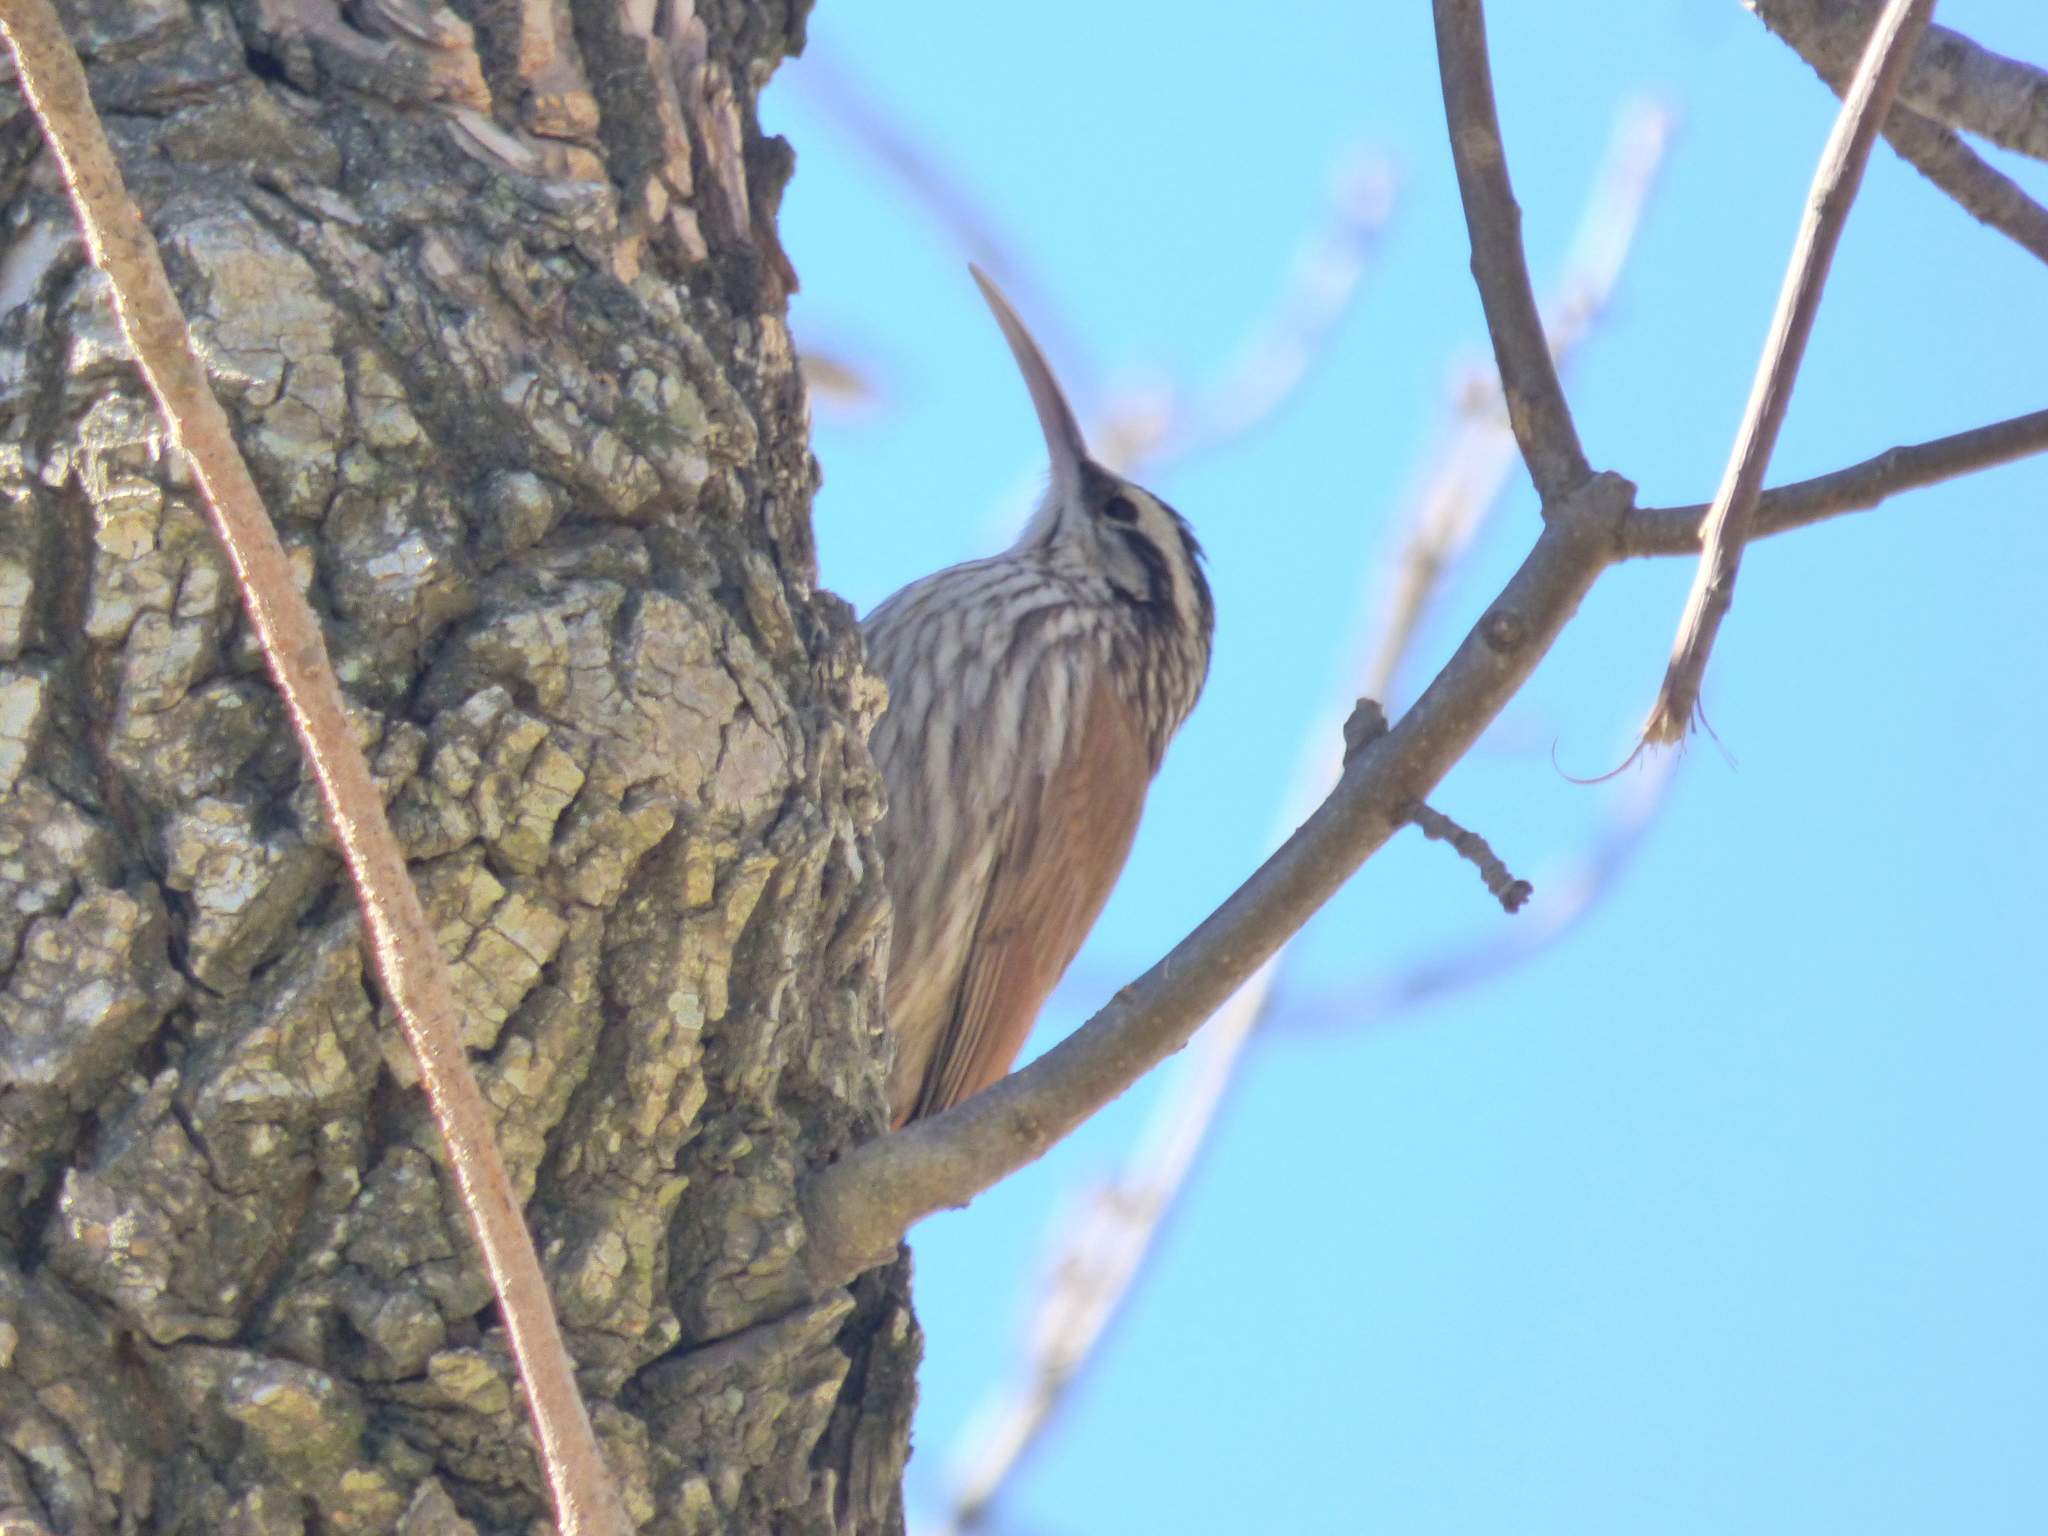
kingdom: Animalia
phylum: Chordata
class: Aves
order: Passeriformes
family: Furnariidae
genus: Lepidocolaptes
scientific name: Lepidocolaptes angustirostris
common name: Narrow-billed woodcreeper
